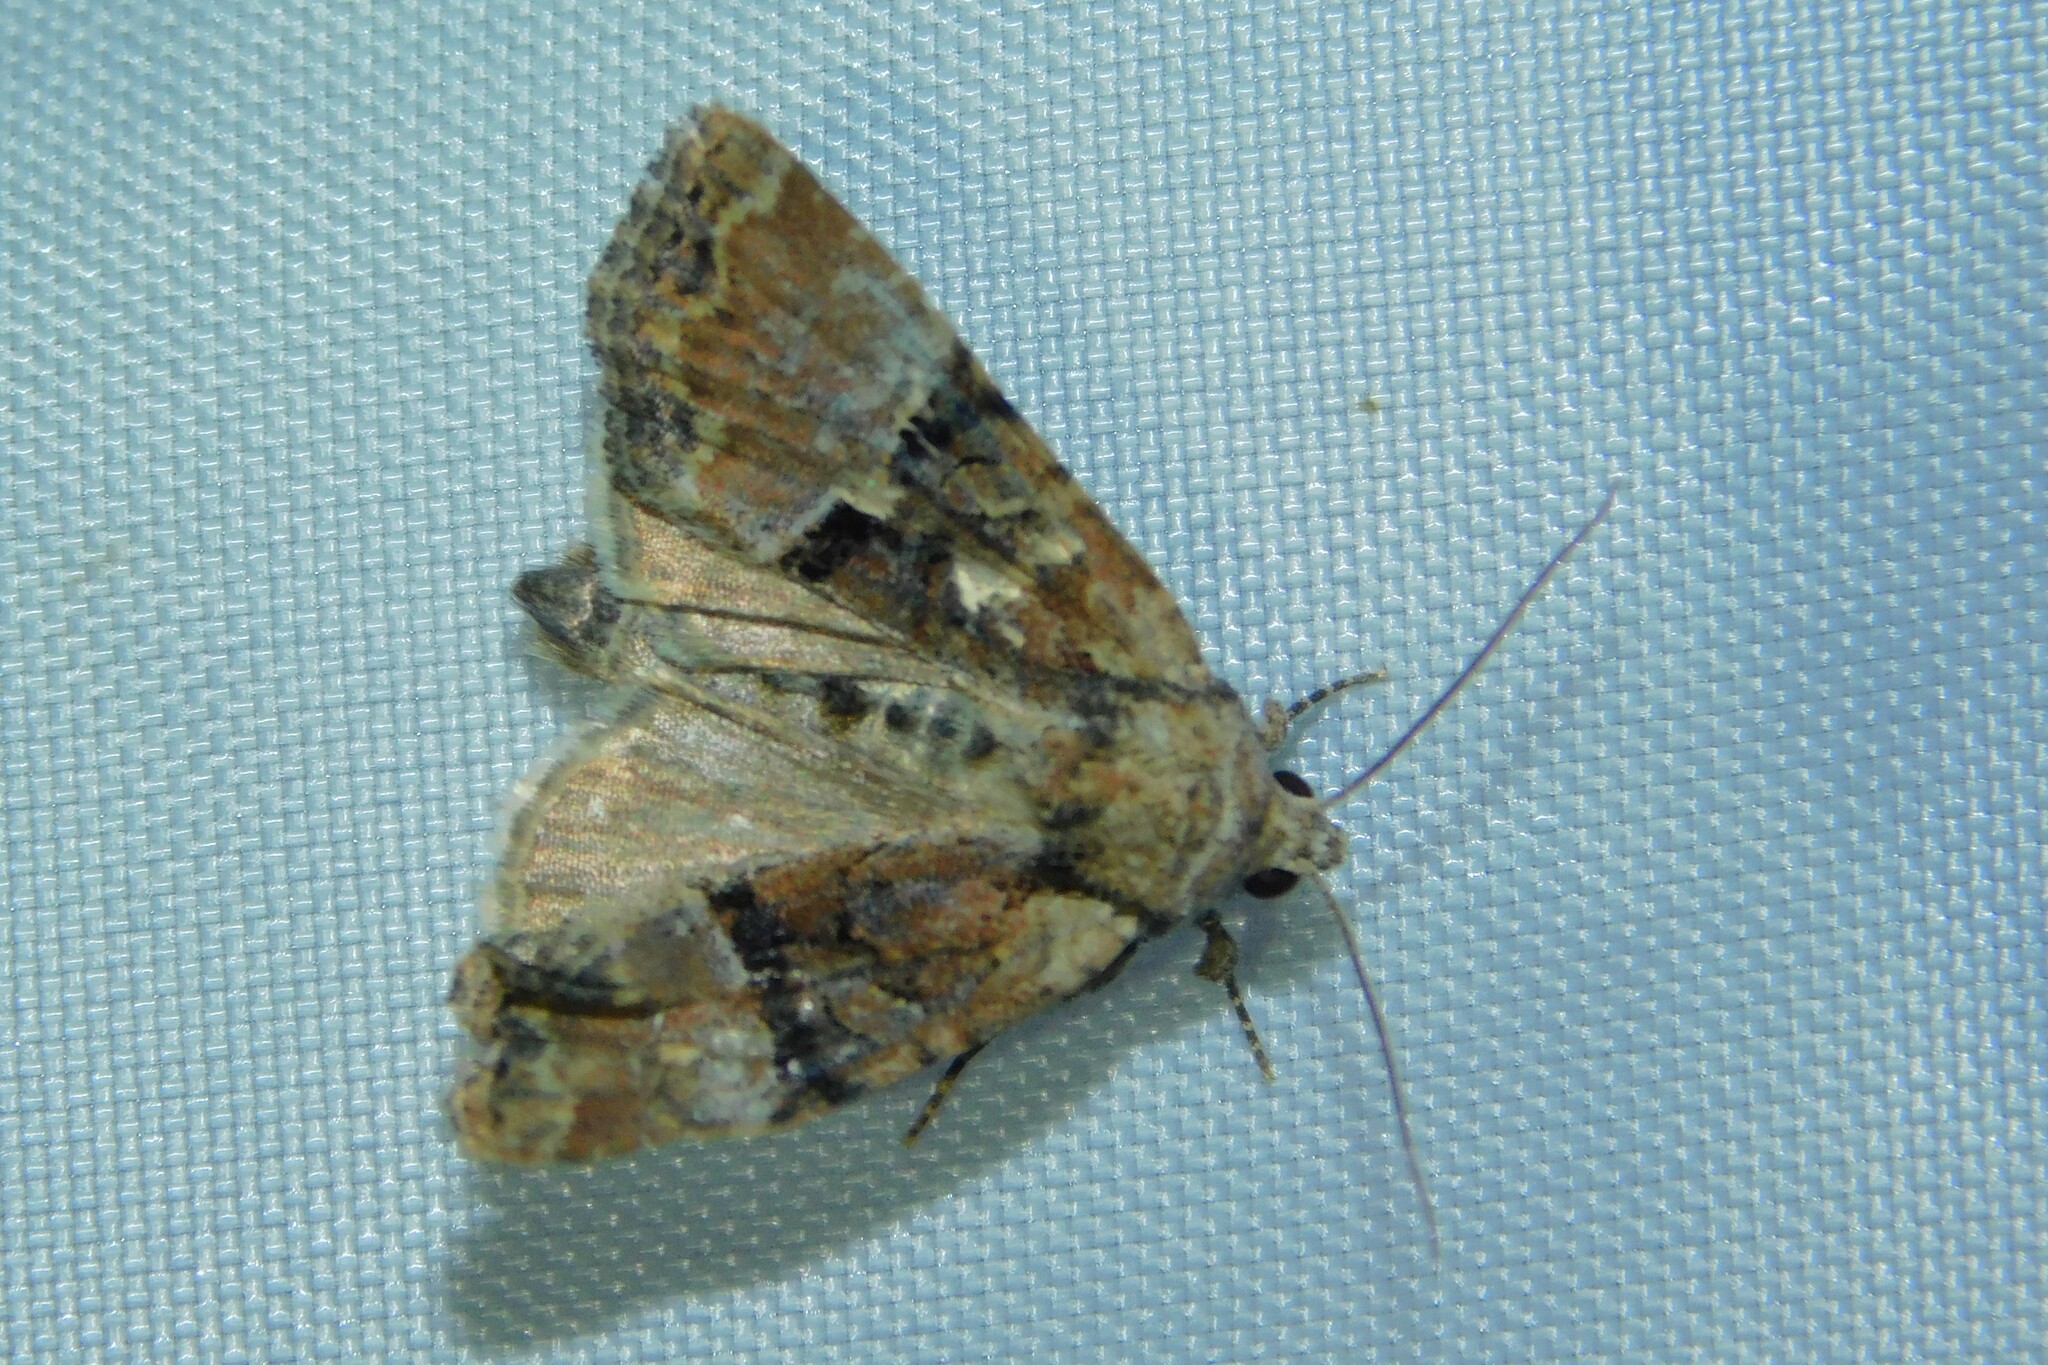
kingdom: Animalia
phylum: Arthropoda
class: Insecta
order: Lepidoptera
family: Noctuidae
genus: Mesoligia
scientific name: Mesoligia furuncula
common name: Cloaked minor
